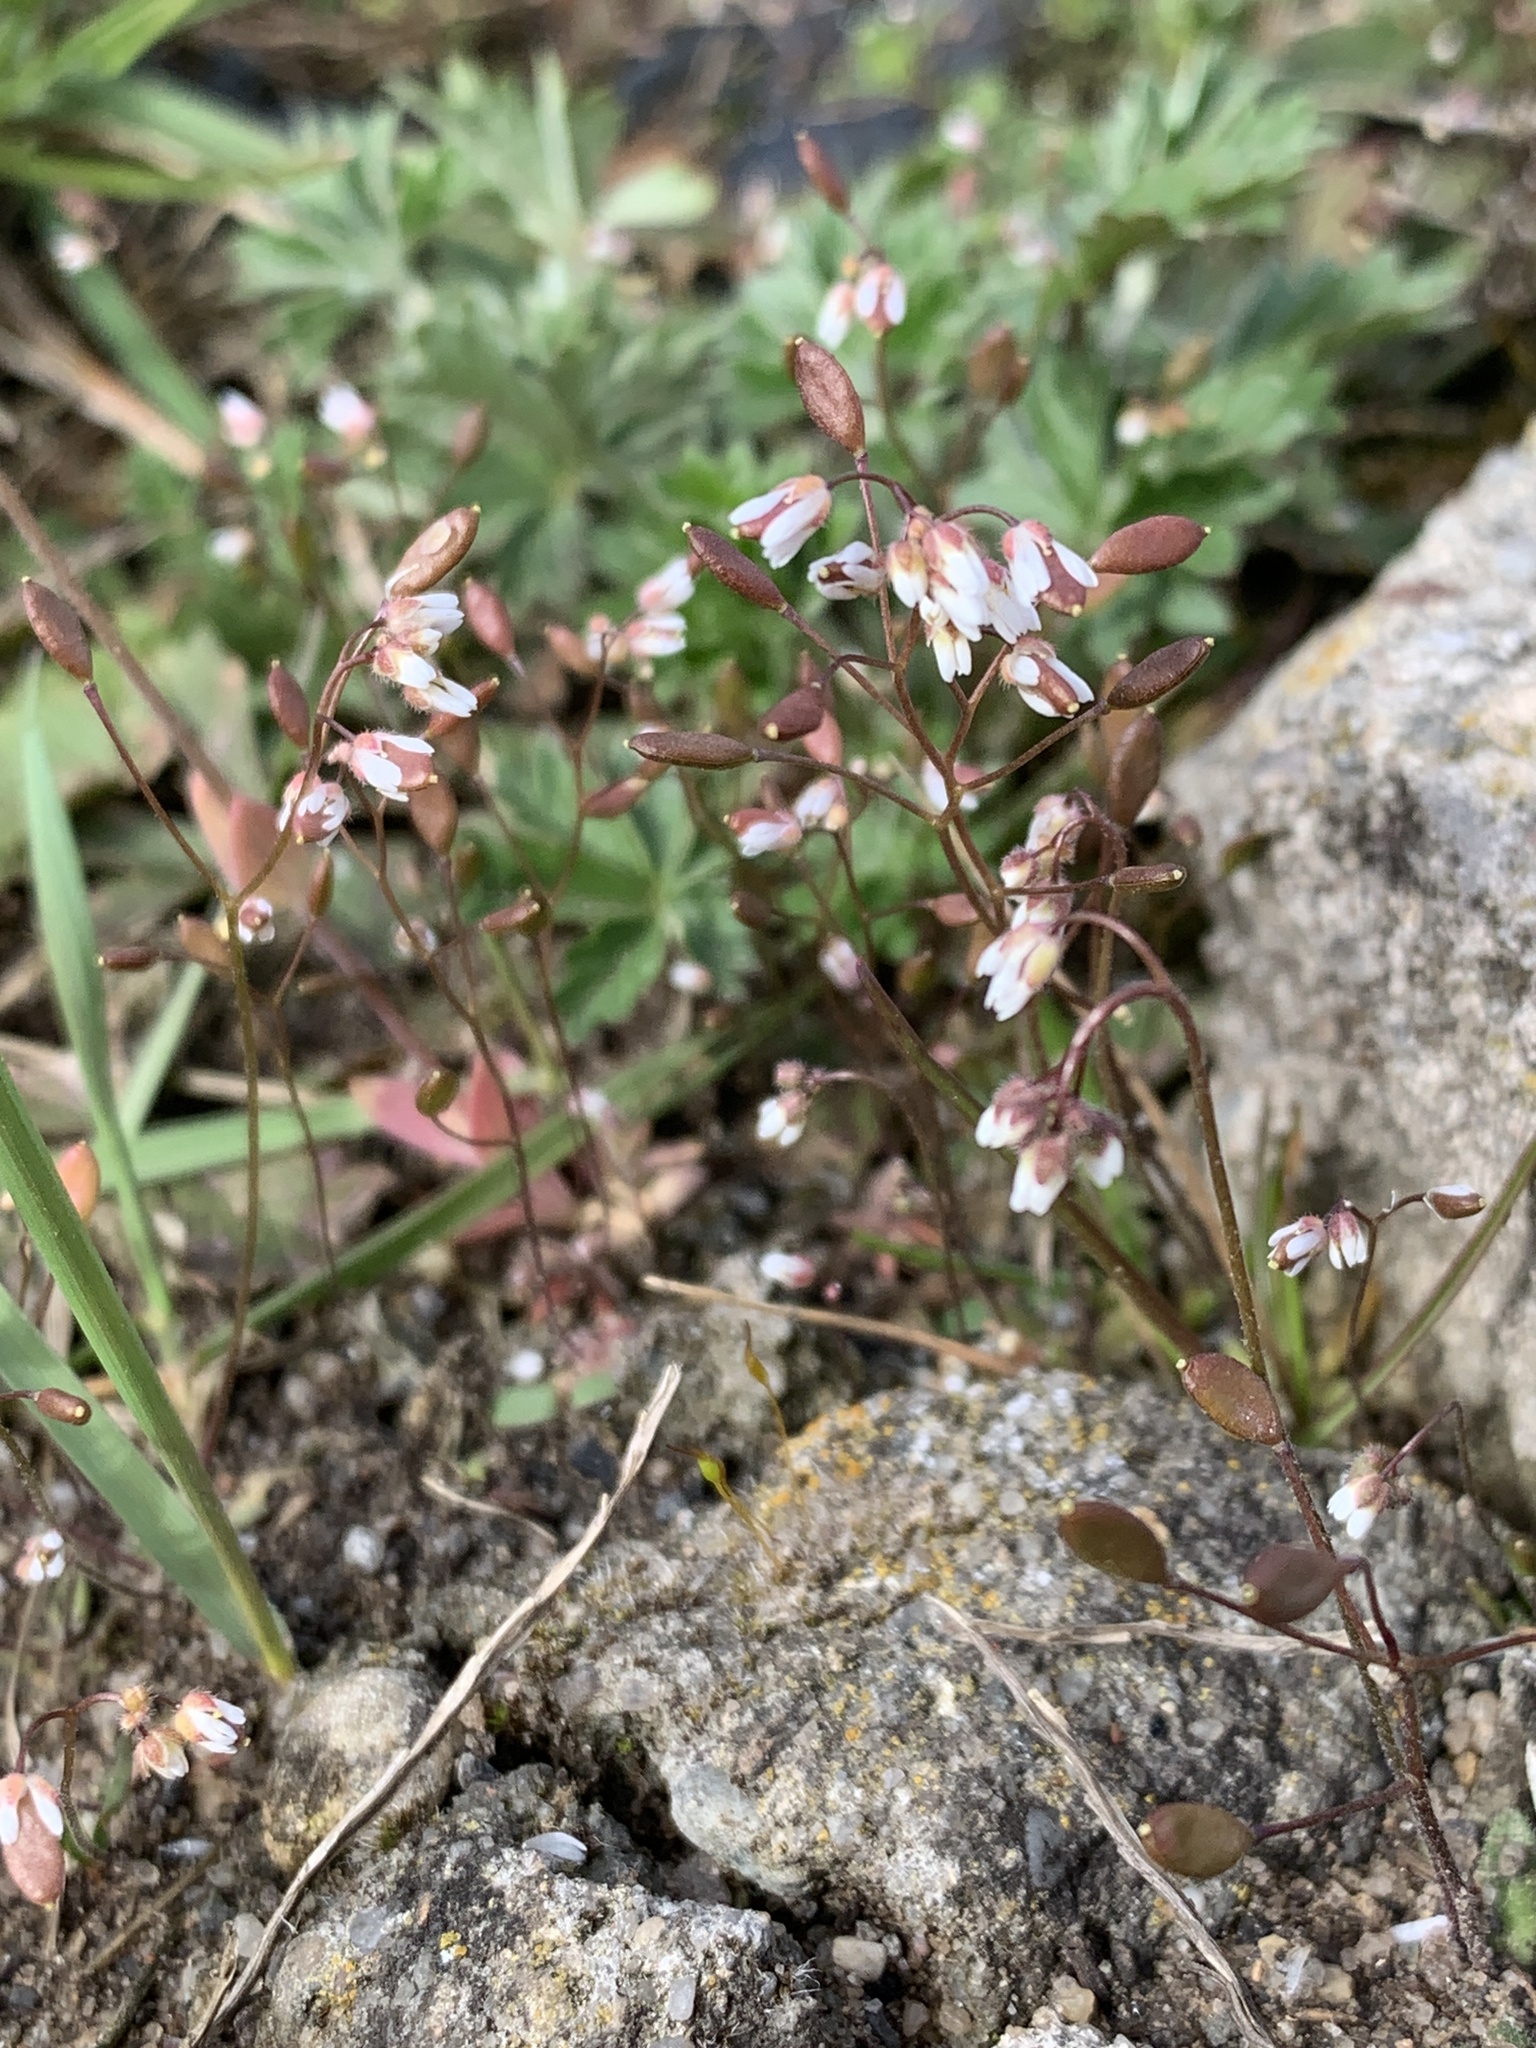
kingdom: Plantae
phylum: Tracheophyta
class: Magnoliopsida
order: Brassicales
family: Brassicaceae
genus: Draba
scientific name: Draba verna
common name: Spring draba
